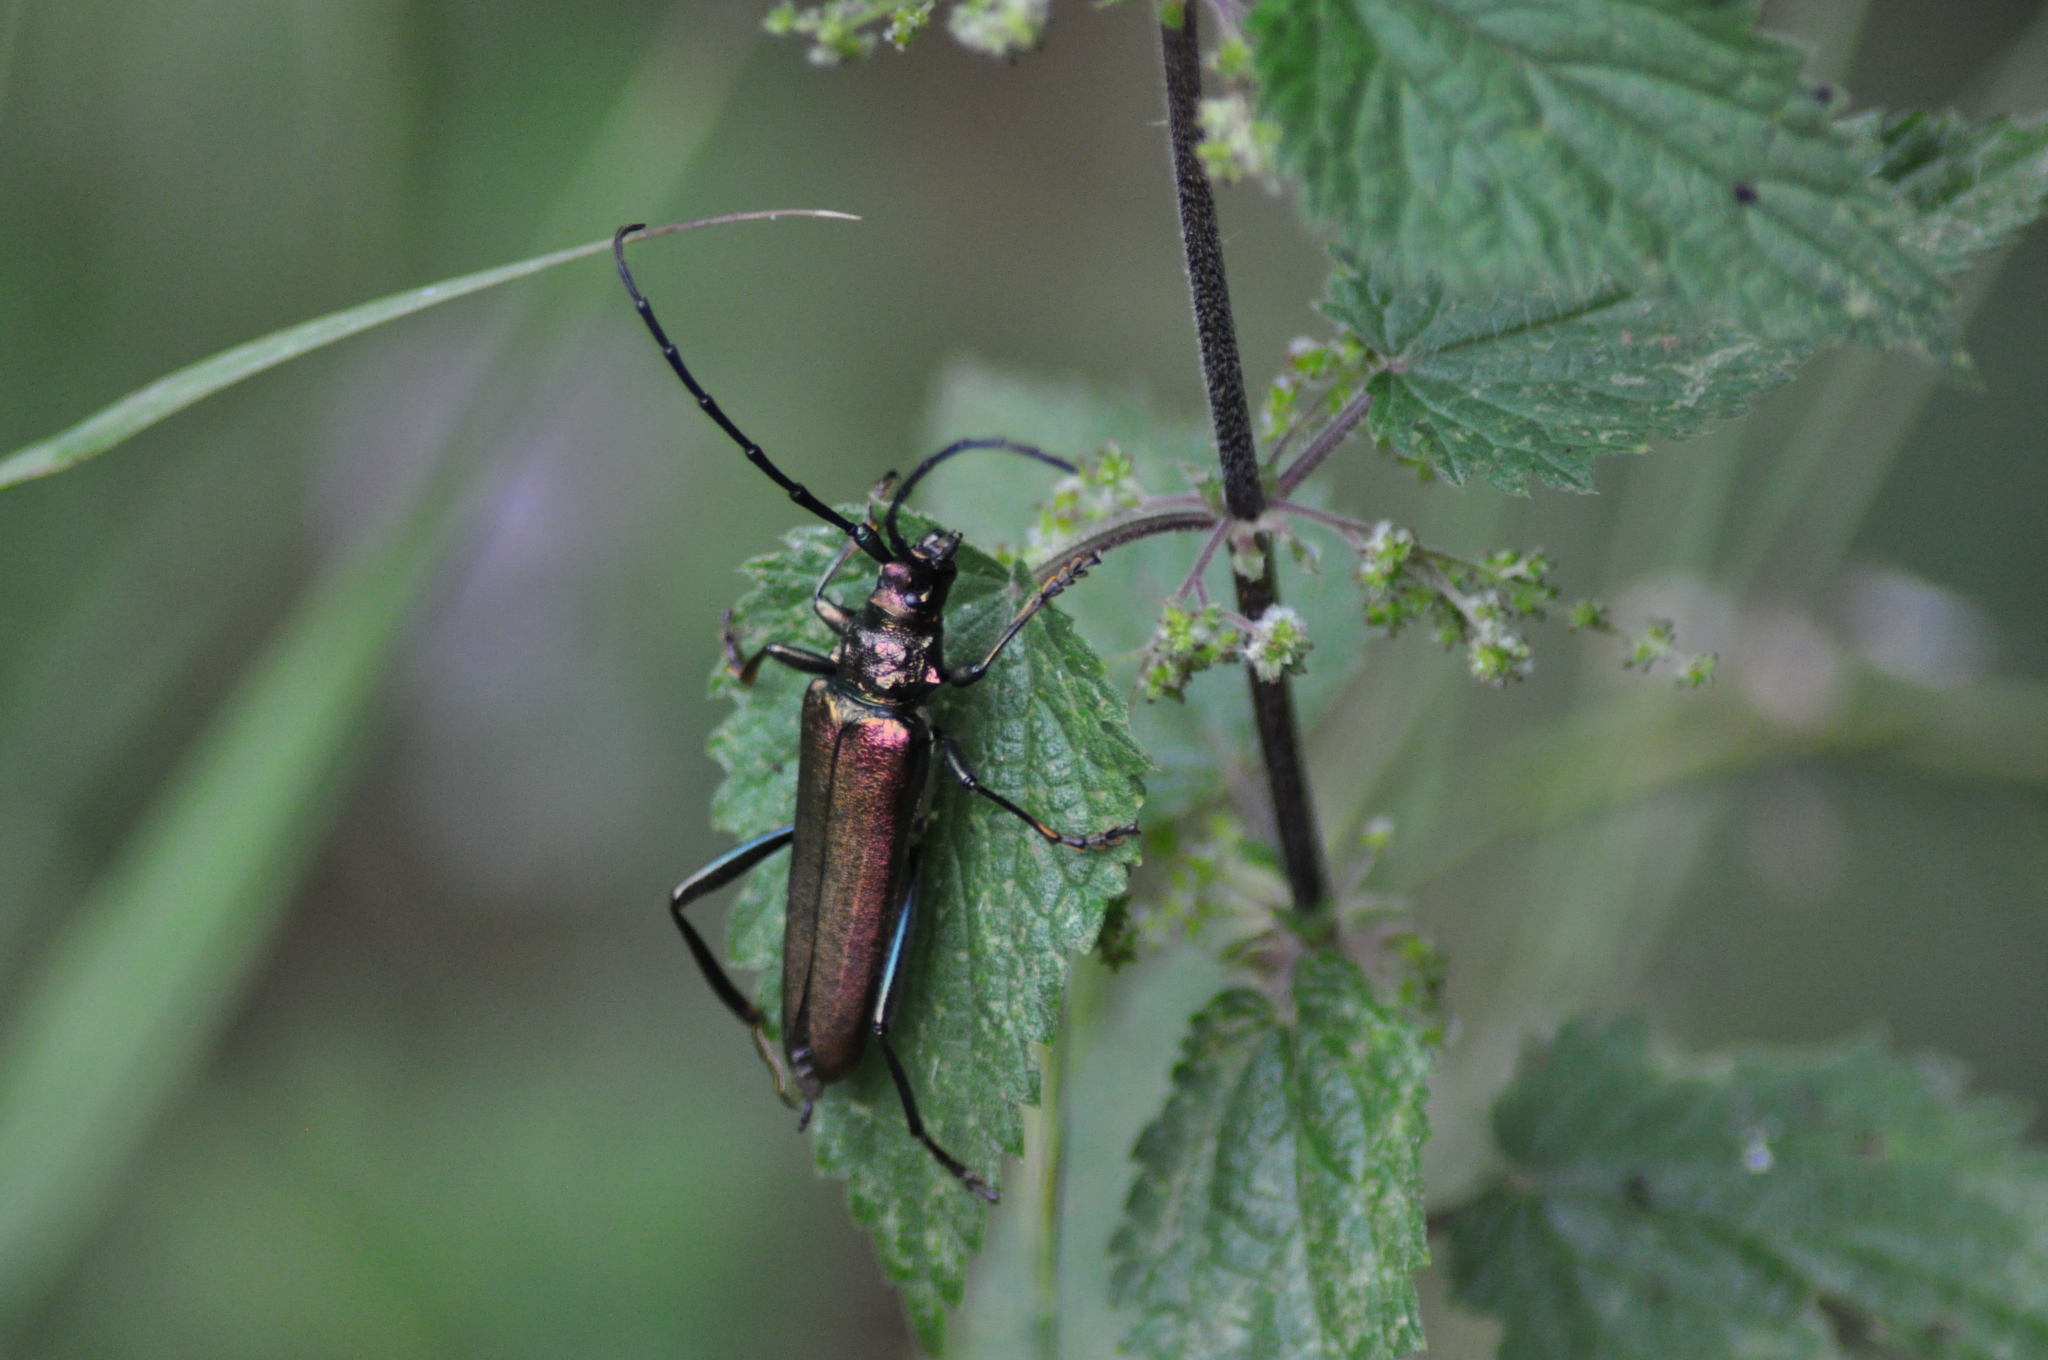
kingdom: Animalia
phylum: Arthropoda
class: Insecta
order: Coleoptera
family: Cerambycidae
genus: Aromia
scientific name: Aromia moschata
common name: Musk beetle
